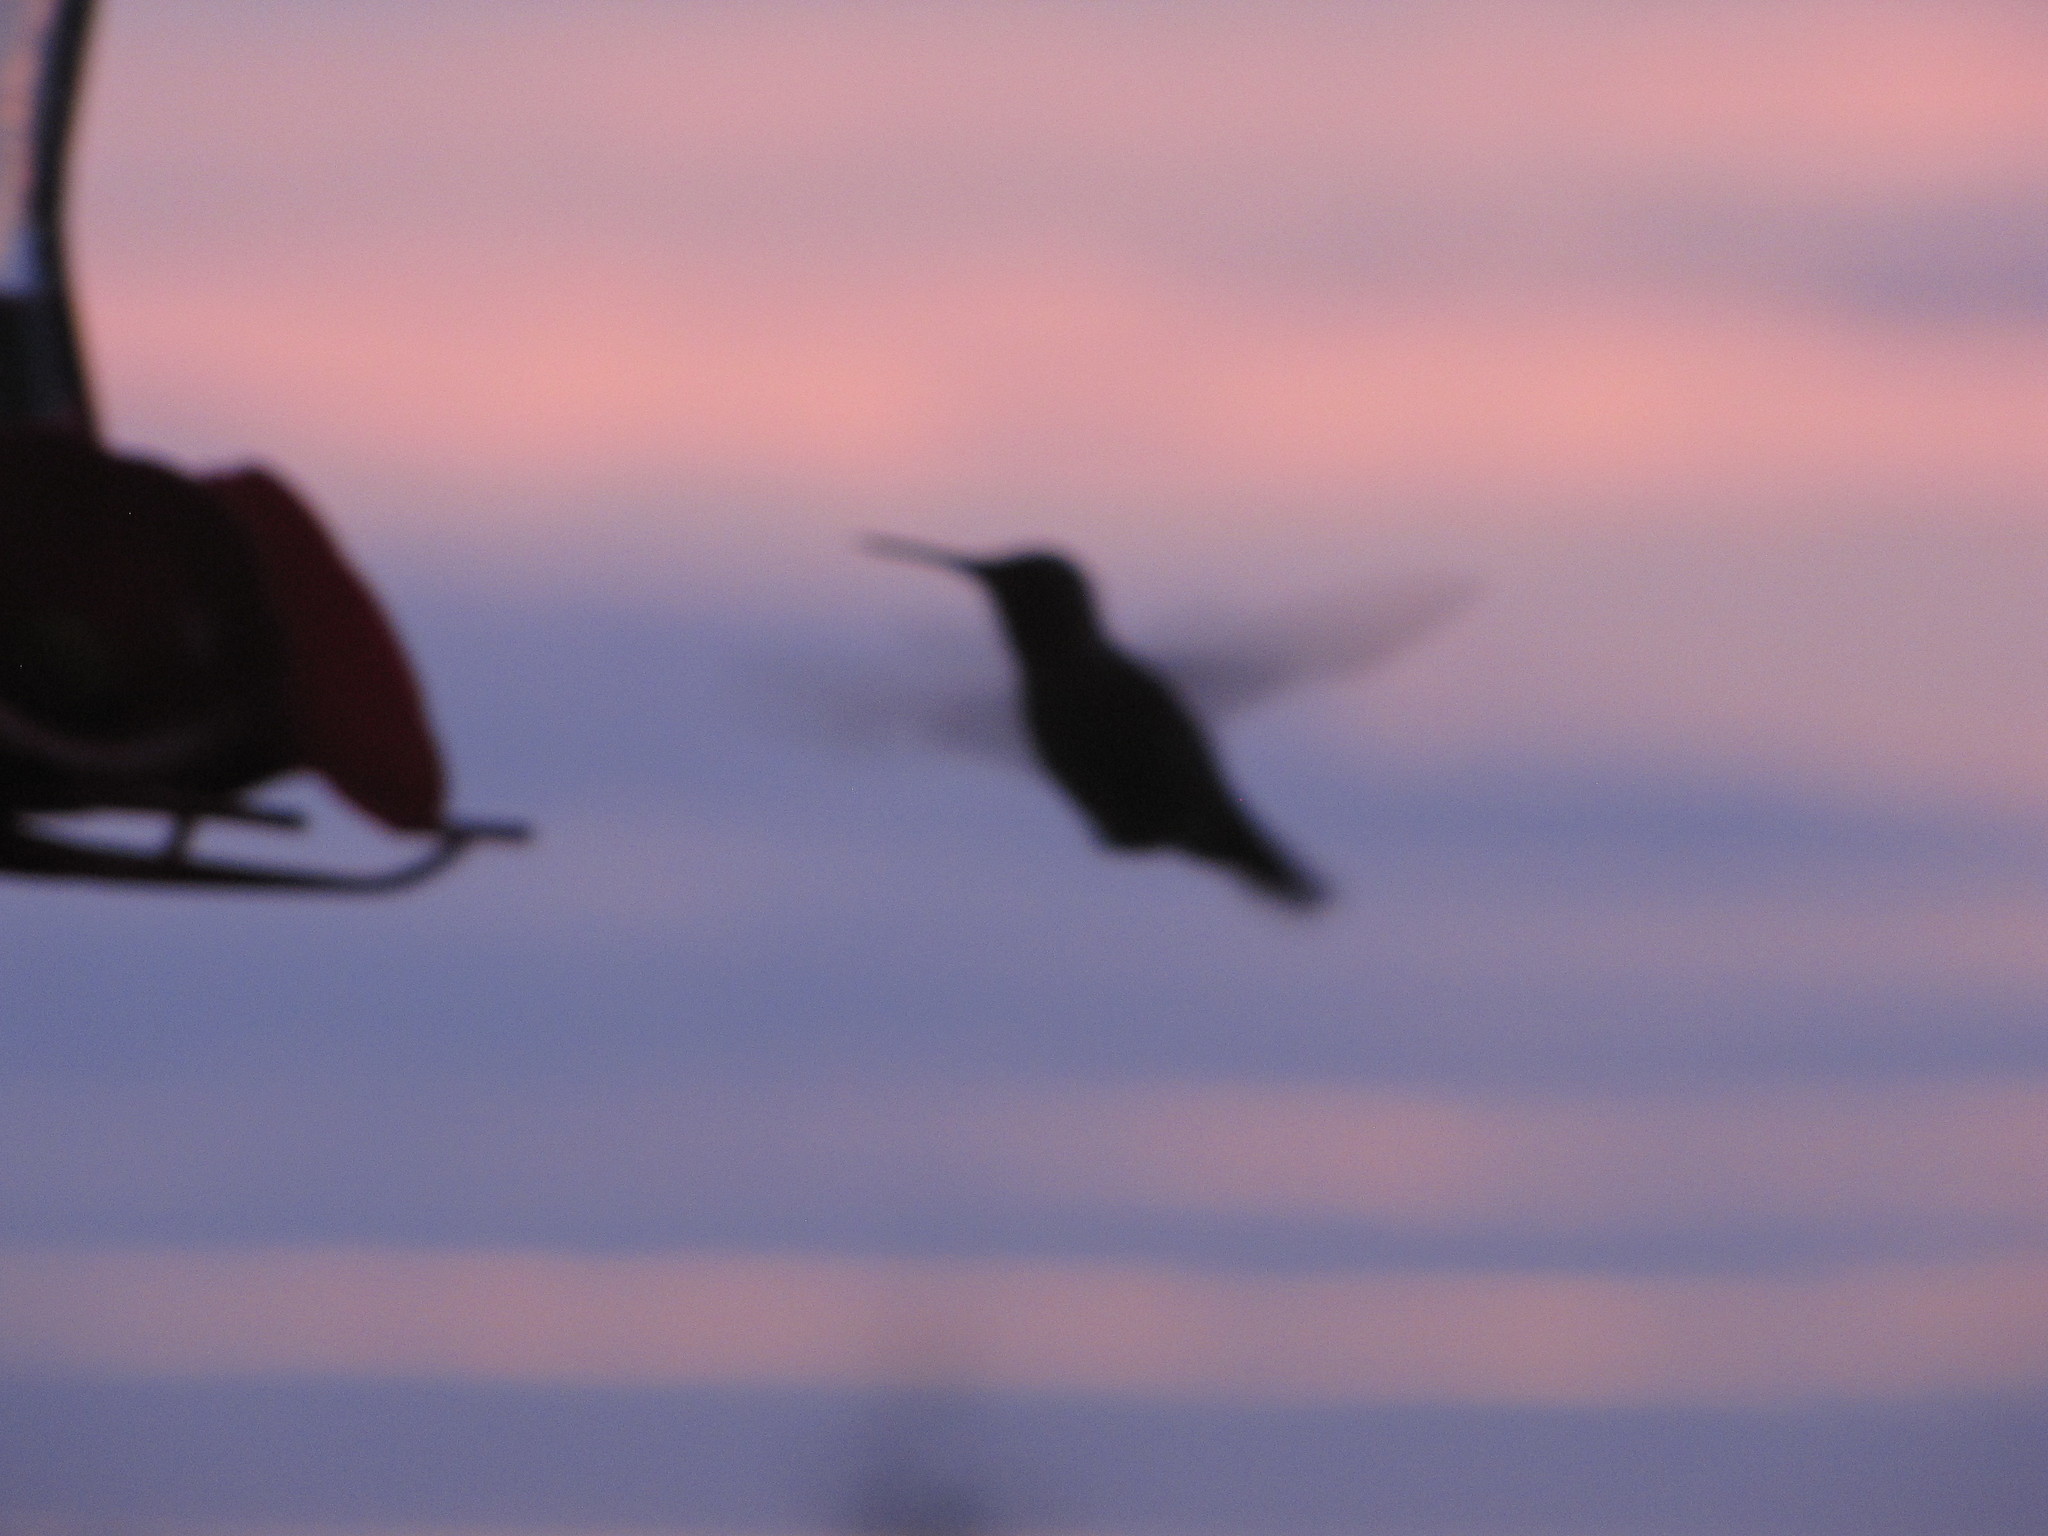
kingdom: Animalia
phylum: Chordata
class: Aves
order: Apodiformes
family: Trochilidae
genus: Calypte
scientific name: Calypte anna
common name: Anna's hummingbird
